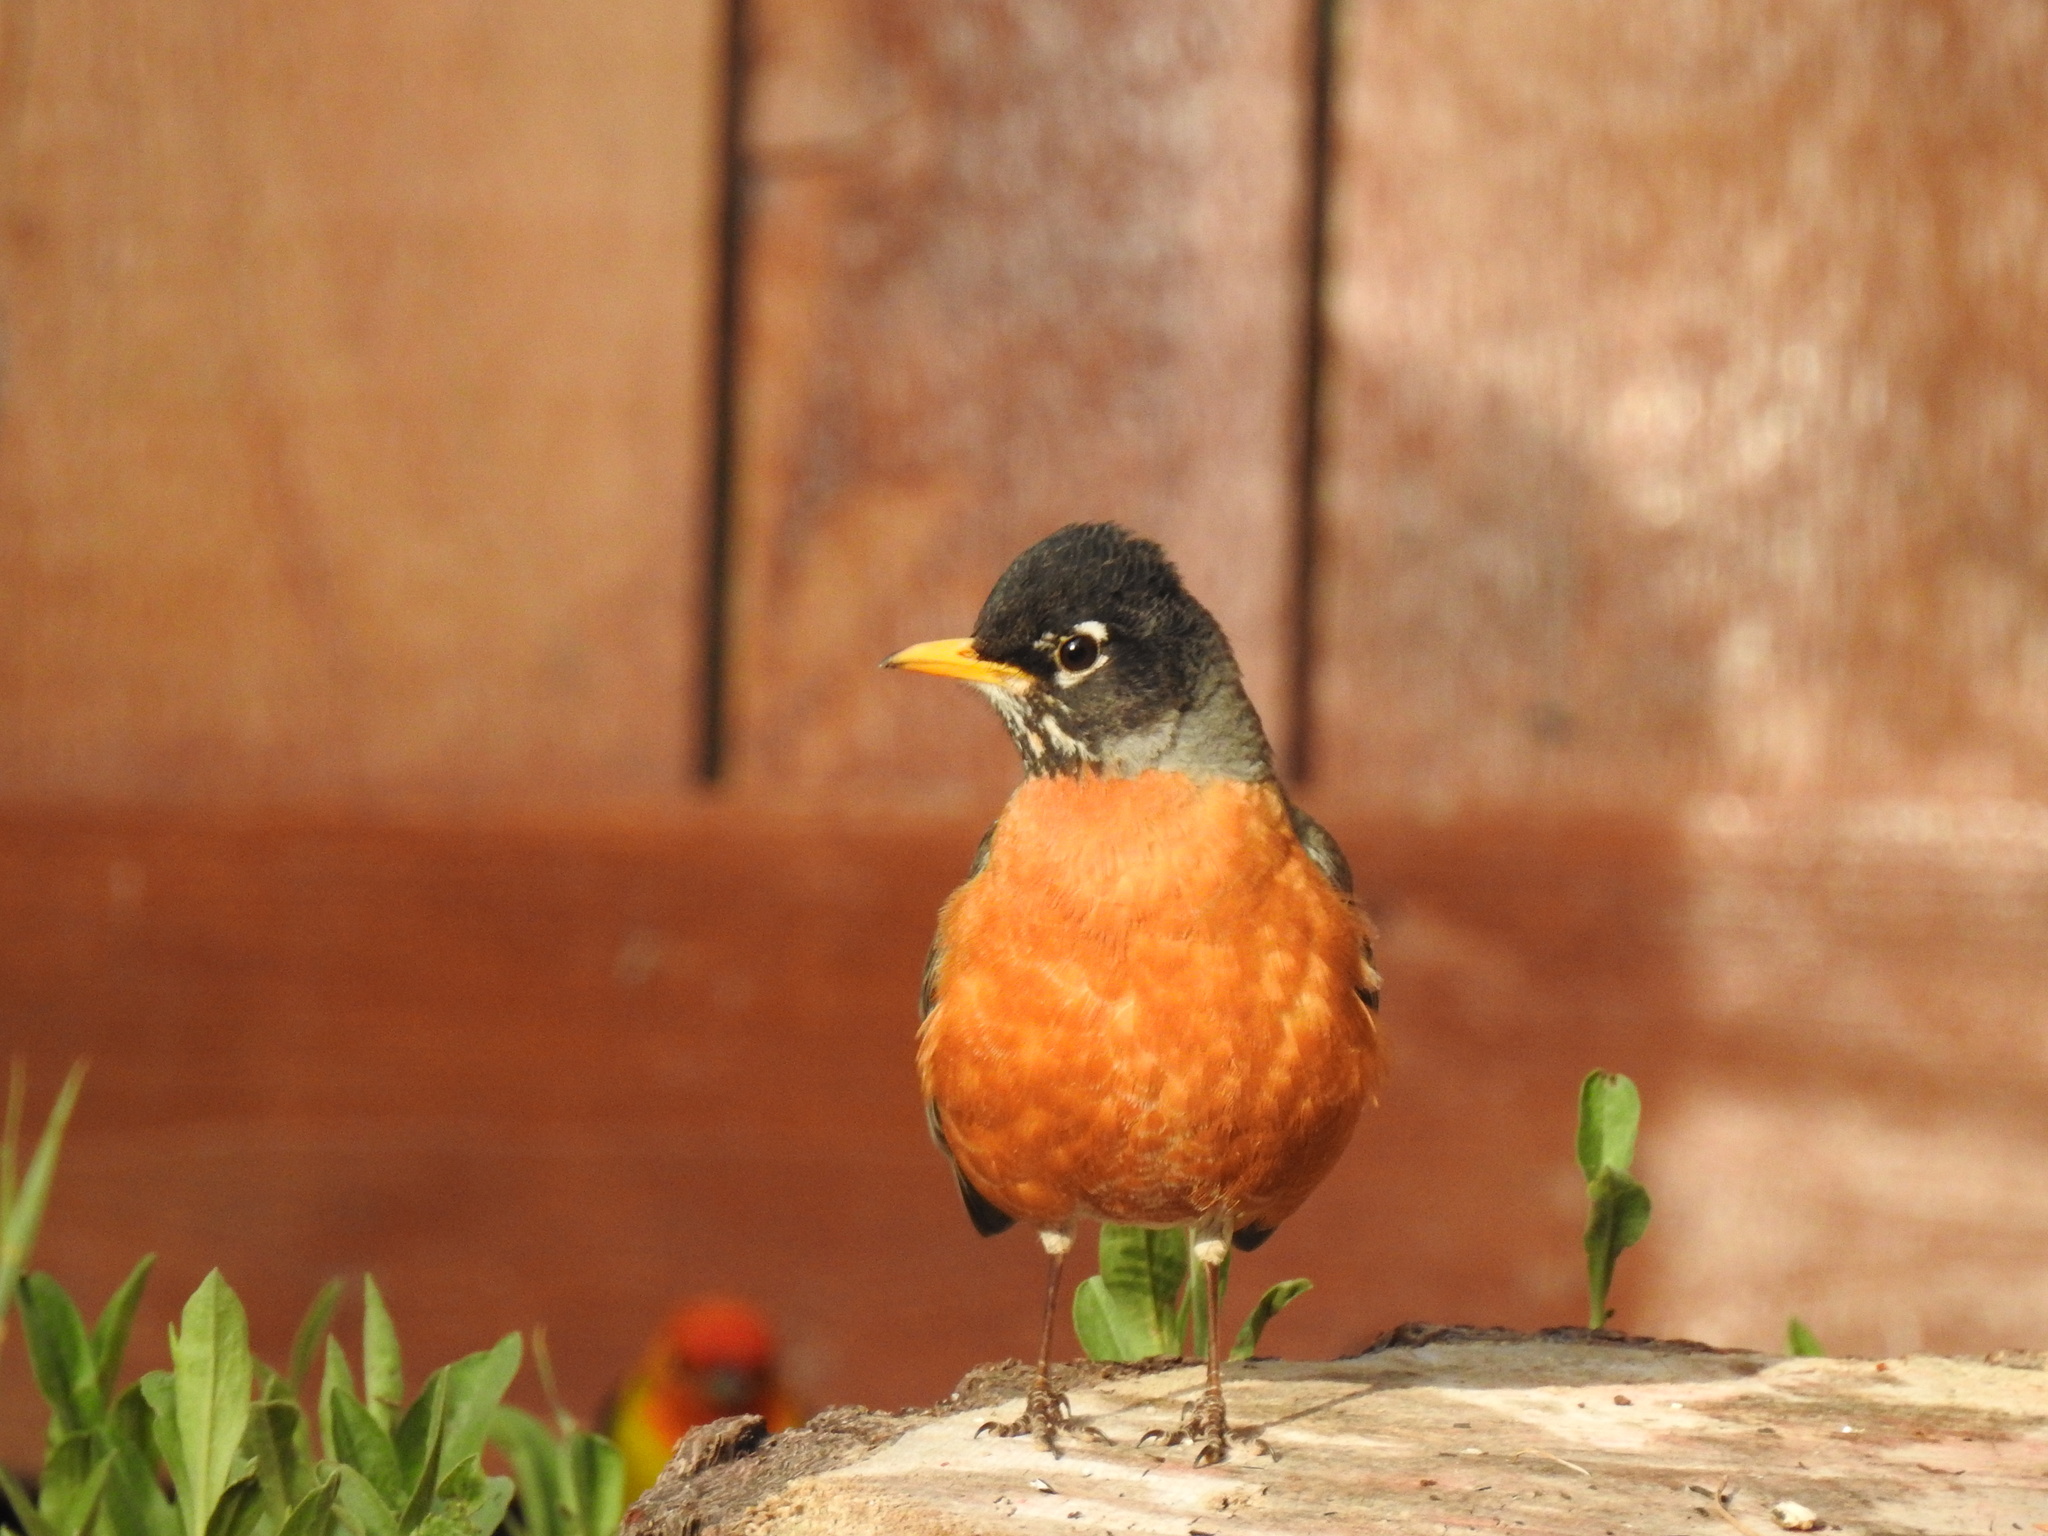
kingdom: Animalia
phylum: Chordata
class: Aves
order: Passeriformes
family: Turdidae
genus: Turdus
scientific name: Turdus migratorius
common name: American robin
